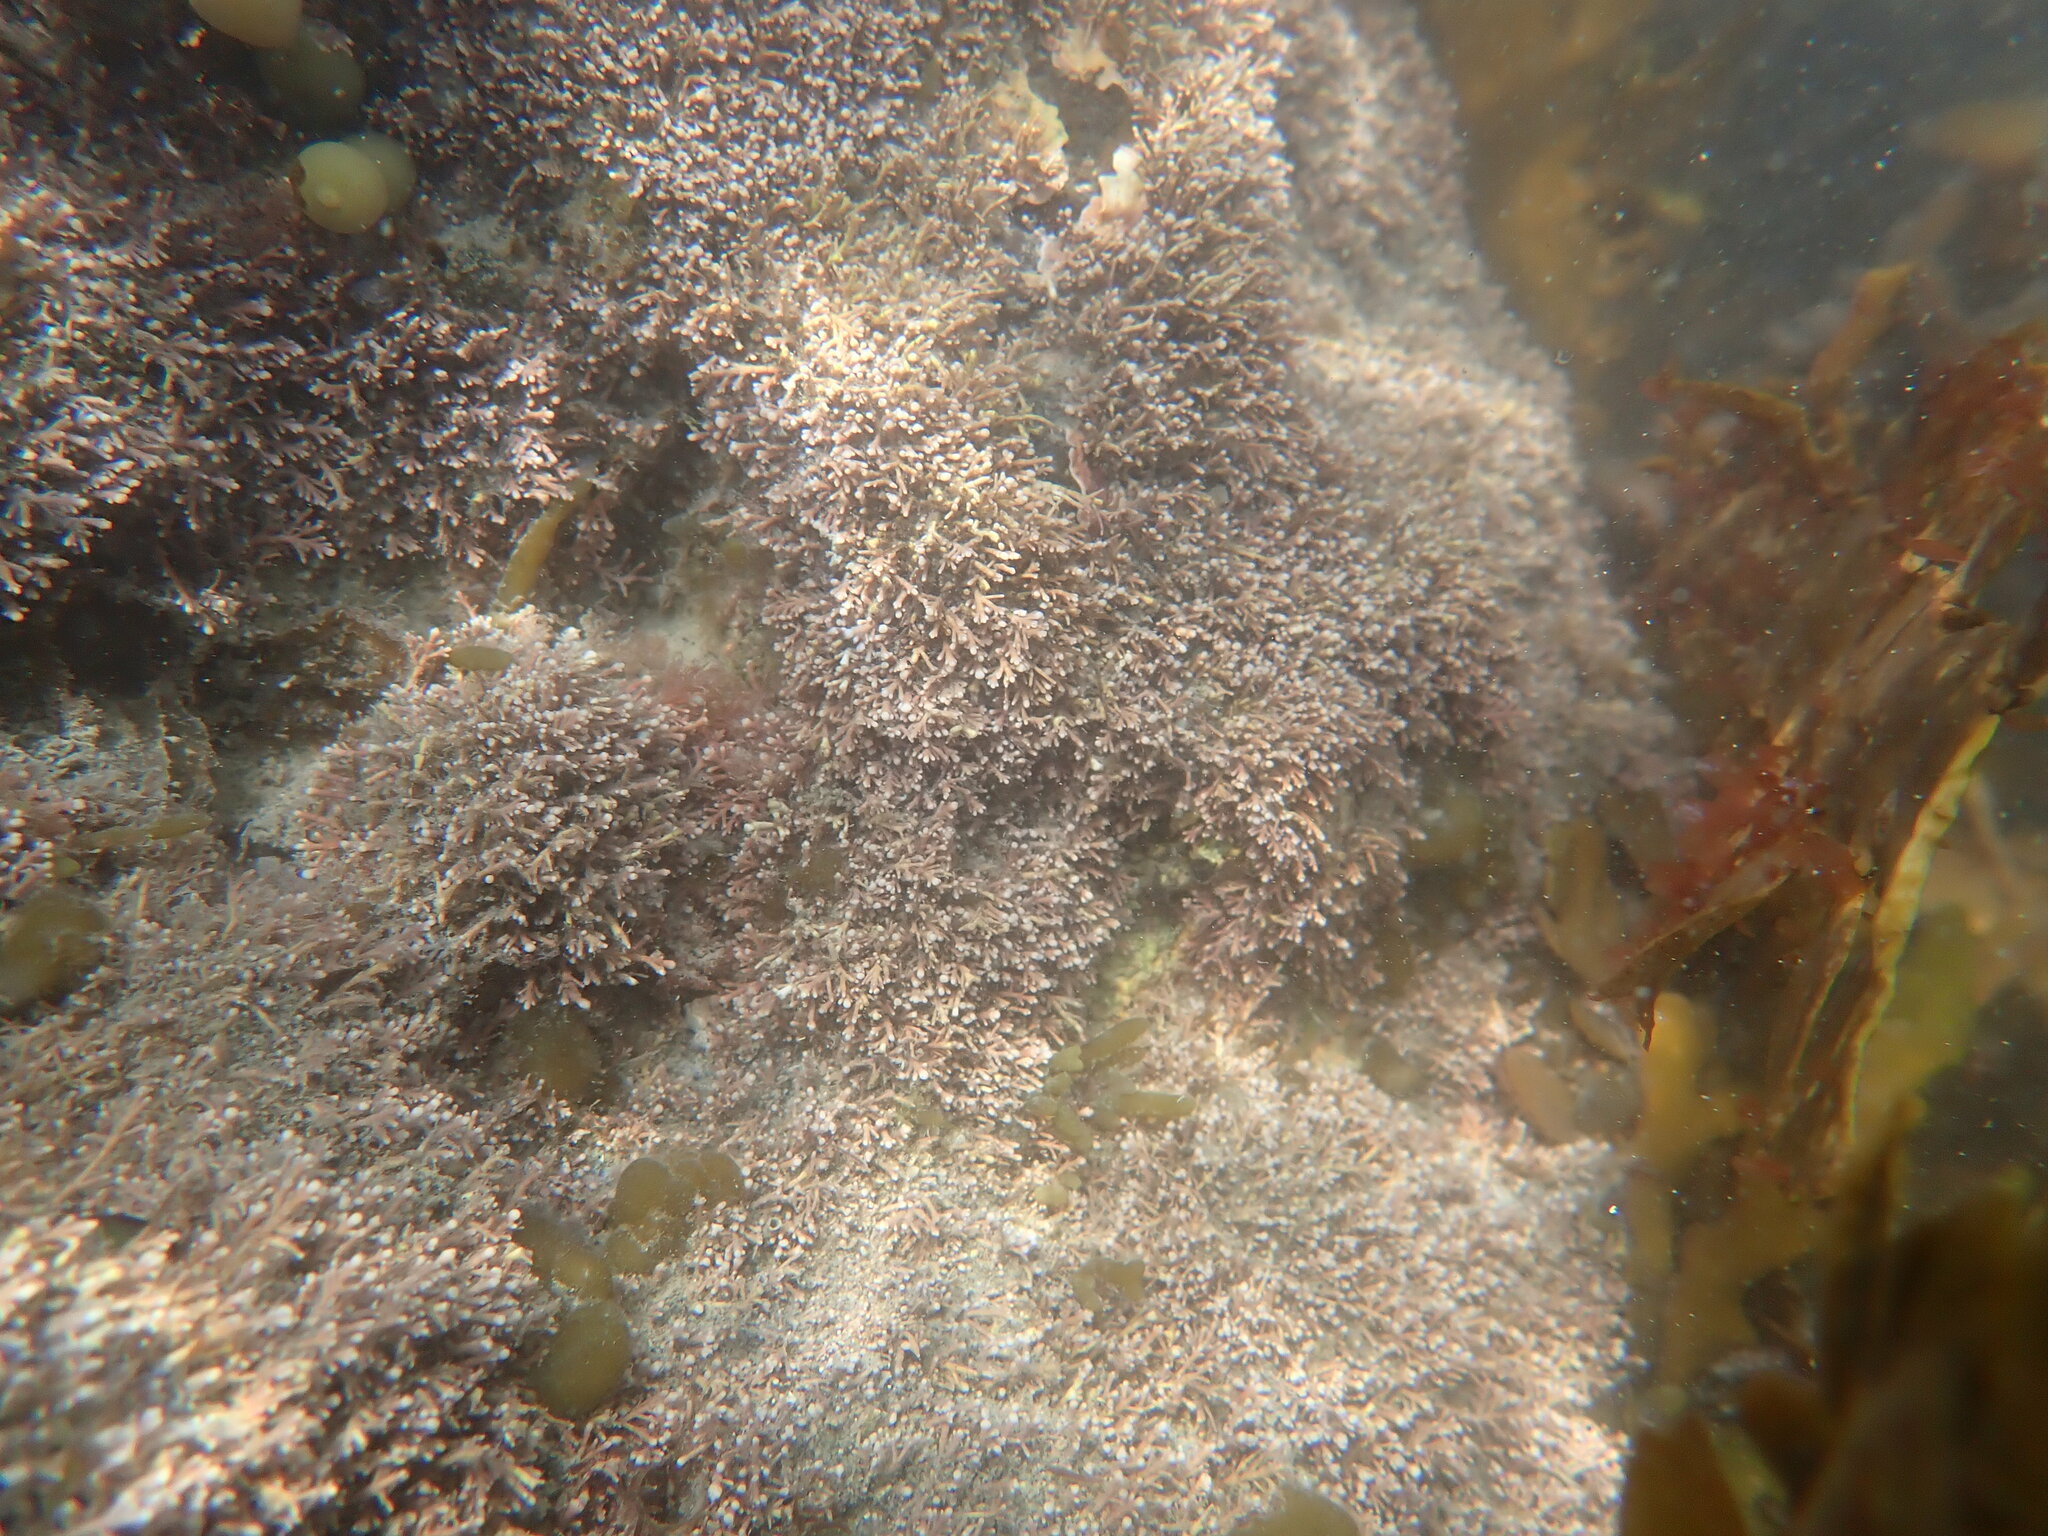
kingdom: Plantae
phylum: Rhodophyta
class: Florideophyceae
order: Corallinales
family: Corallinaceae
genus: Corallina
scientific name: Corallina officinalis
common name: Coral weed
